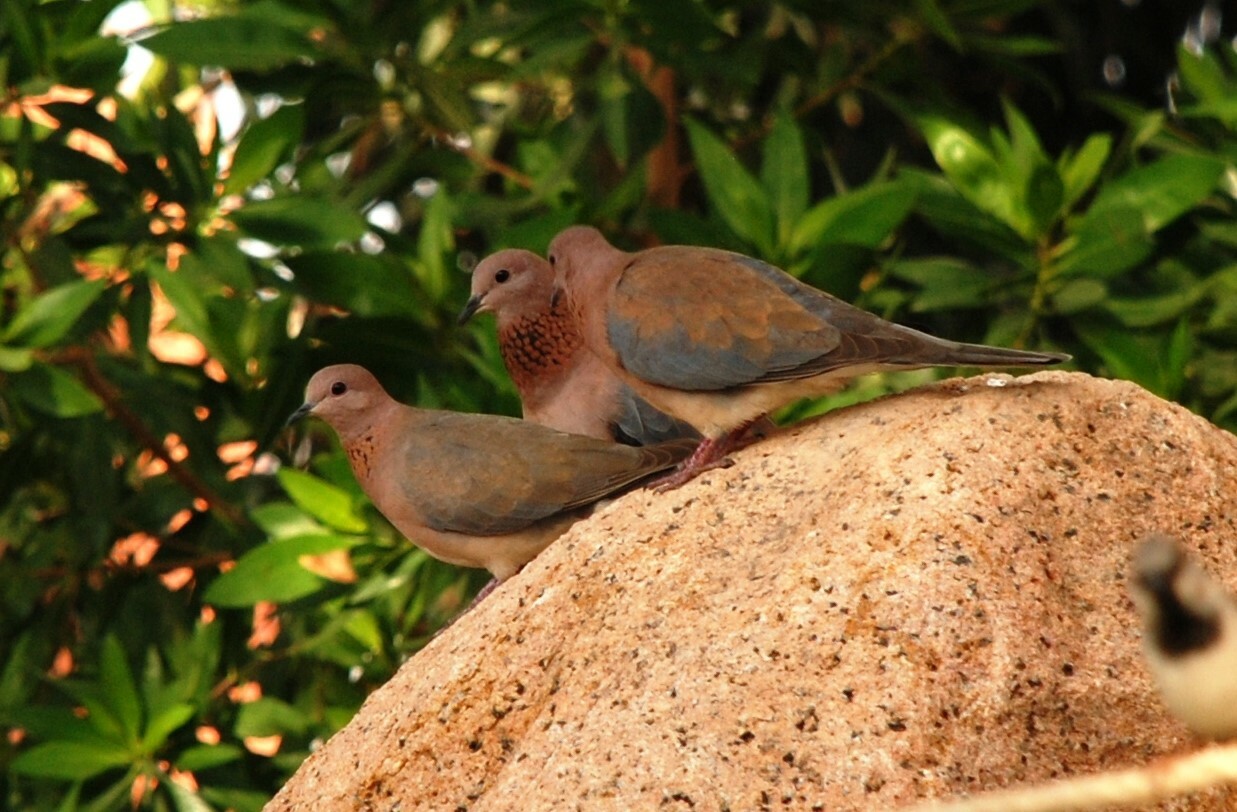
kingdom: Animalia
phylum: Chordata
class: Aves
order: Columbiformes
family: Columbidae
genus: Spilopelia
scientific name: Spilopelia senegalensis
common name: Laughing dove
